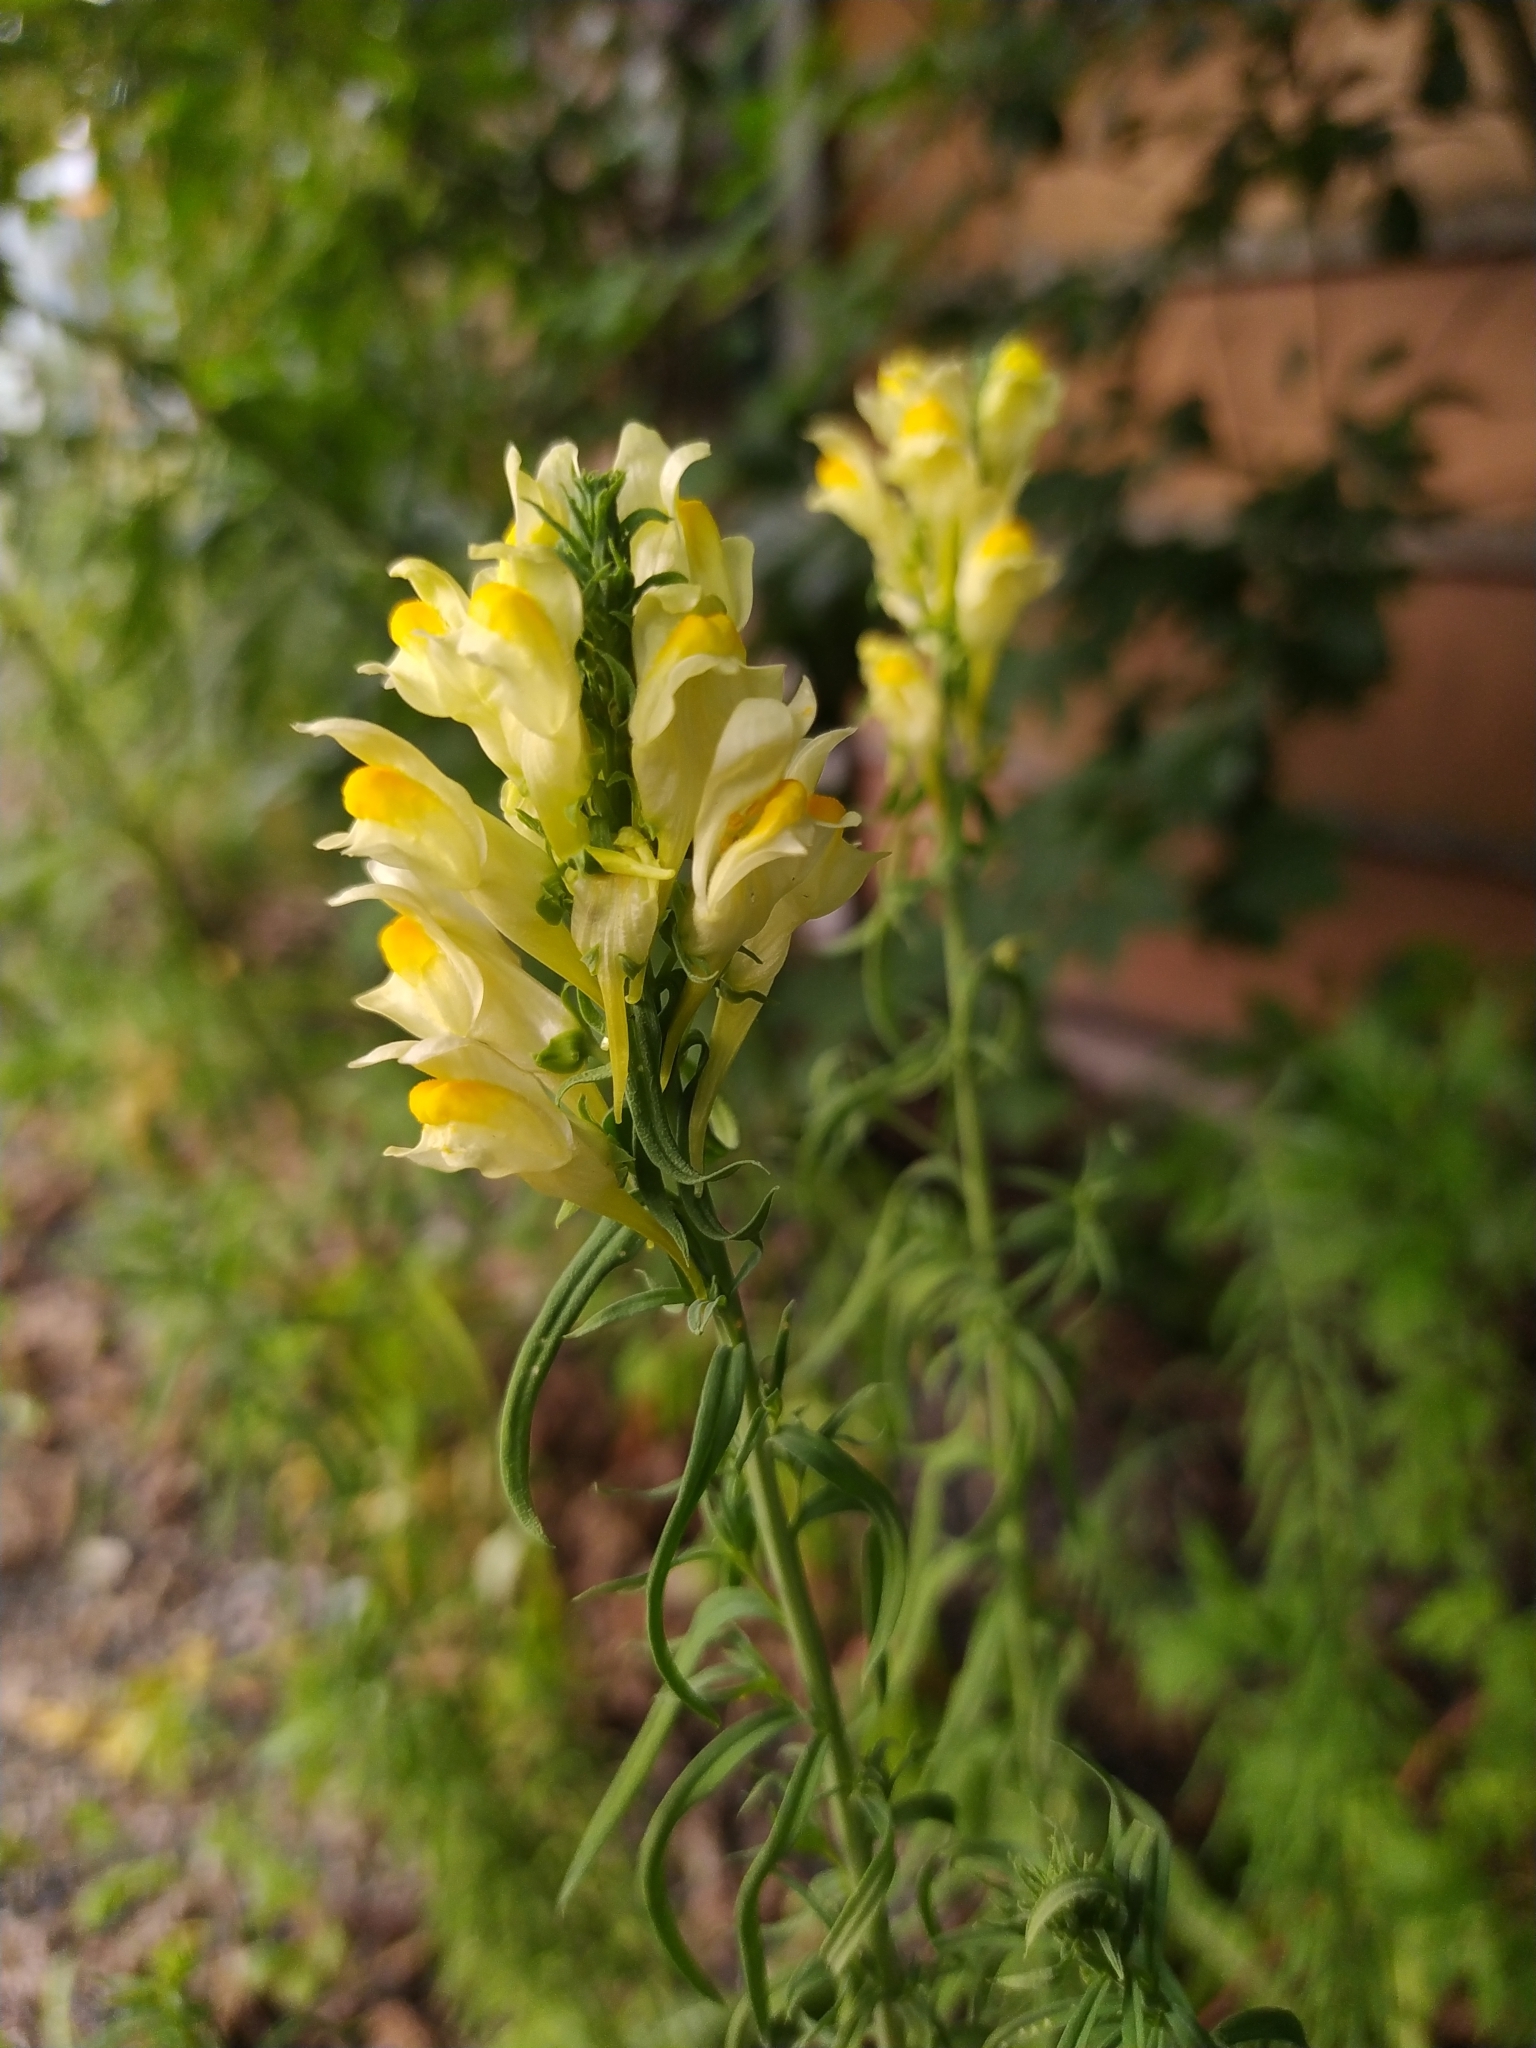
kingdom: Plantae
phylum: Tracheophyta
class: Magnoliopsida
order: Lamiales
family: Plantaginaceae
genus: Linaria
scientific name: Linaria vulgaris
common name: Butter and eggs
